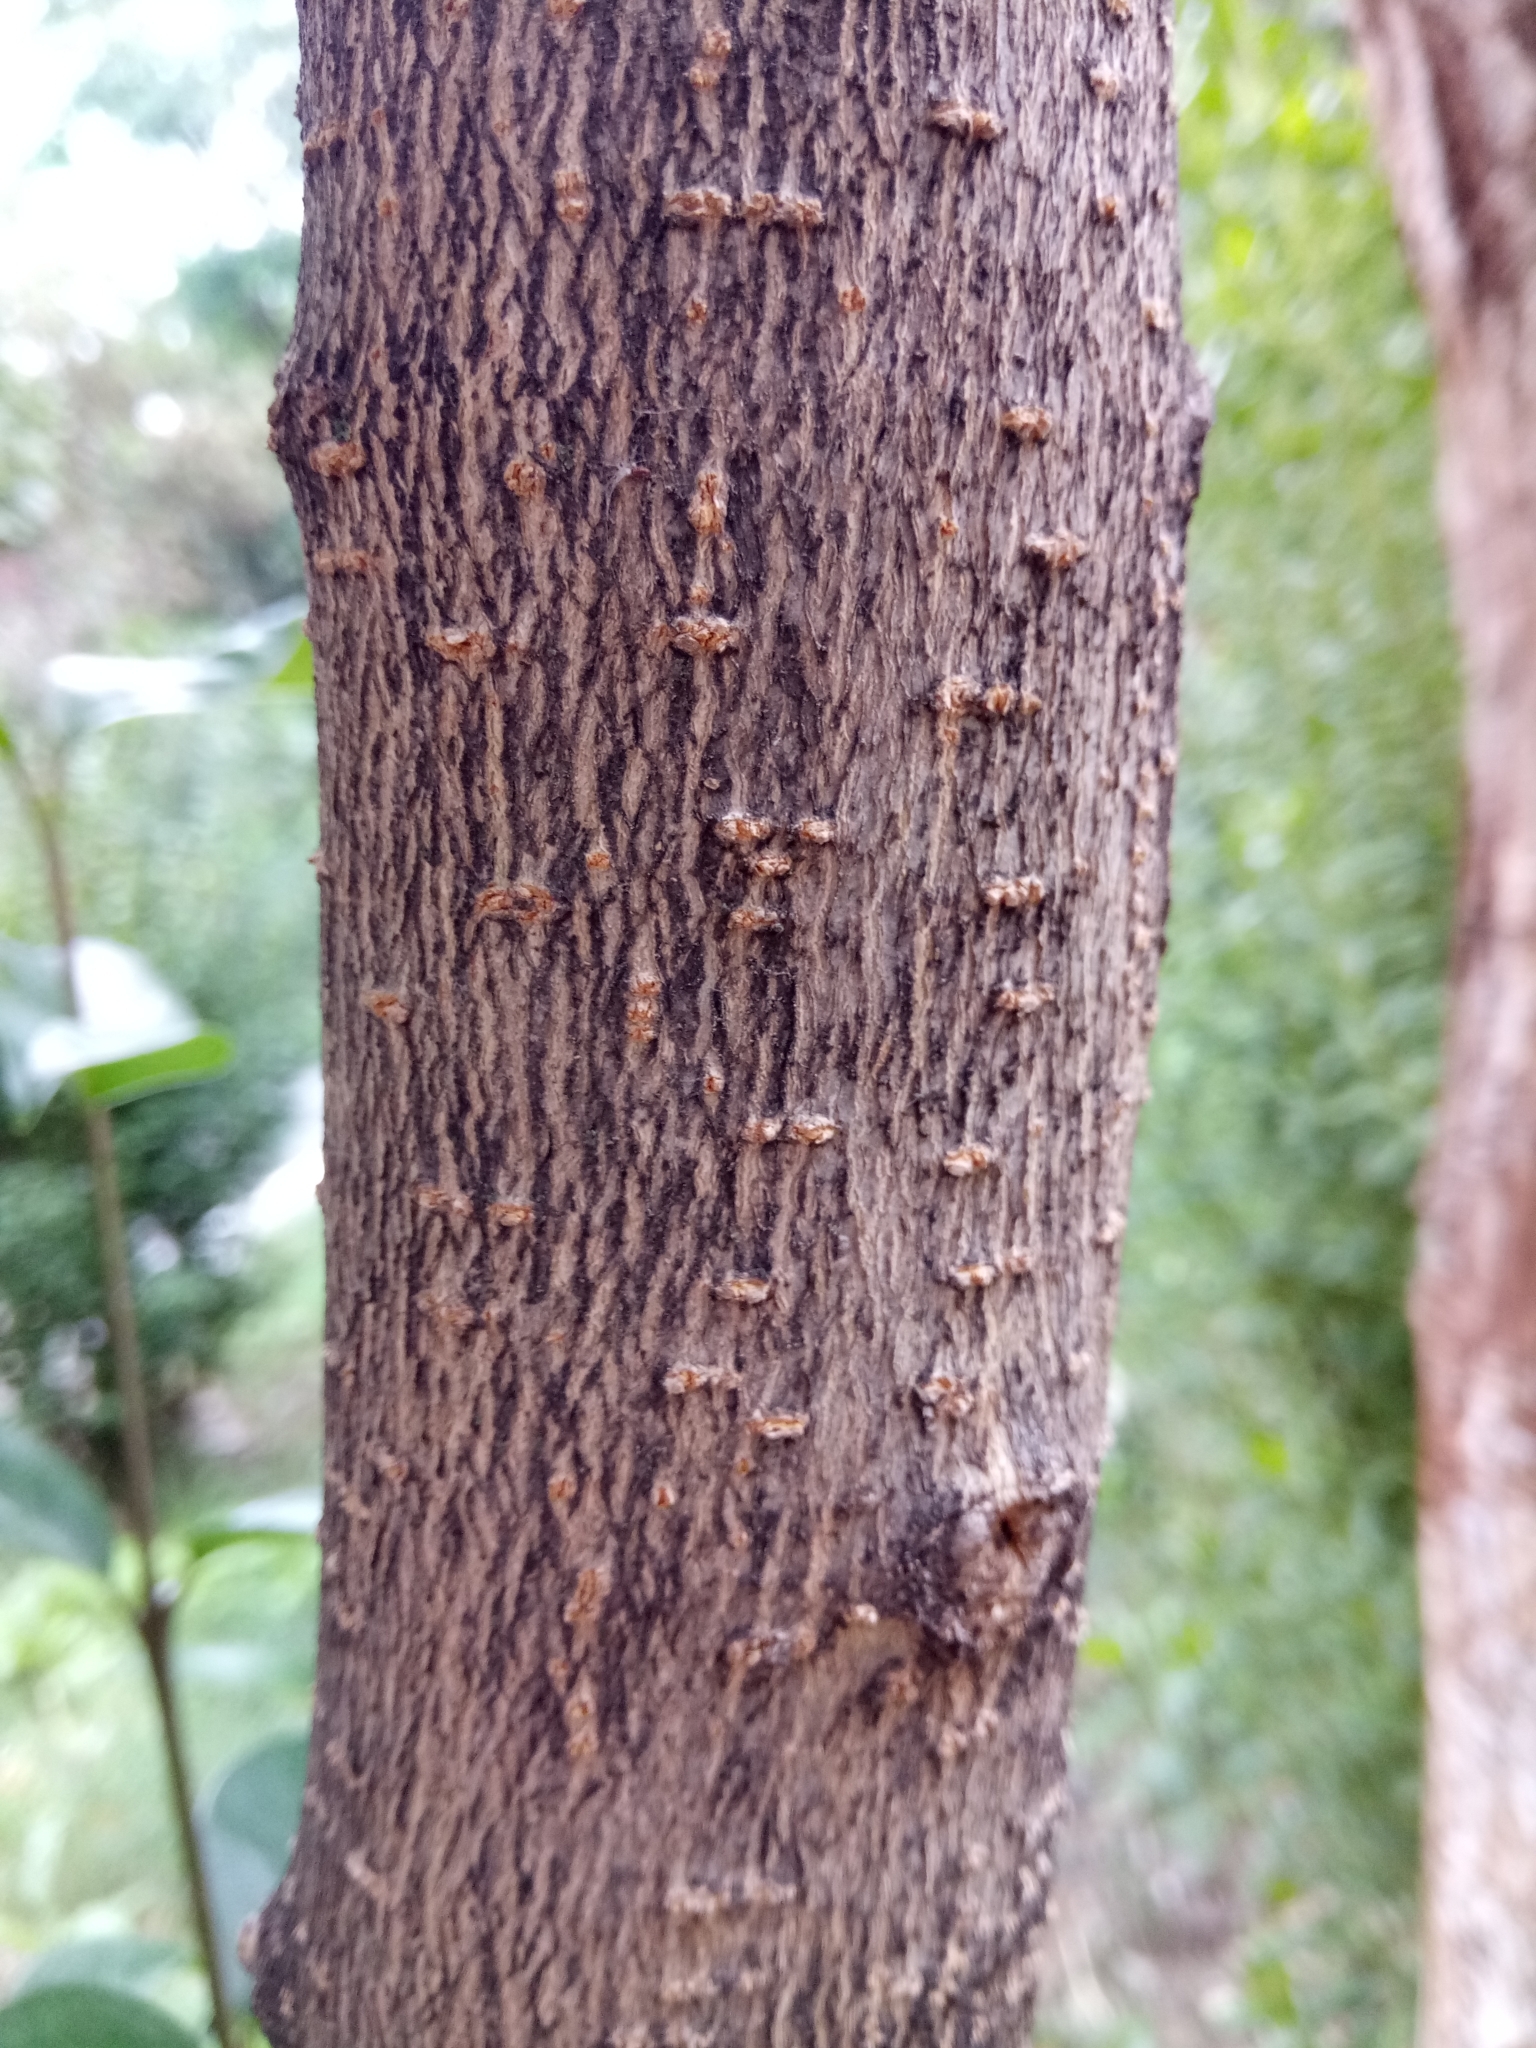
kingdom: Plantae
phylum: Tracheophyta
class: Magnoliopsida
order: Lamiales
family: Oleaceae
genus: Ligustrum
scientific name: Ligustrum lucidum
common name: Glossy privet
